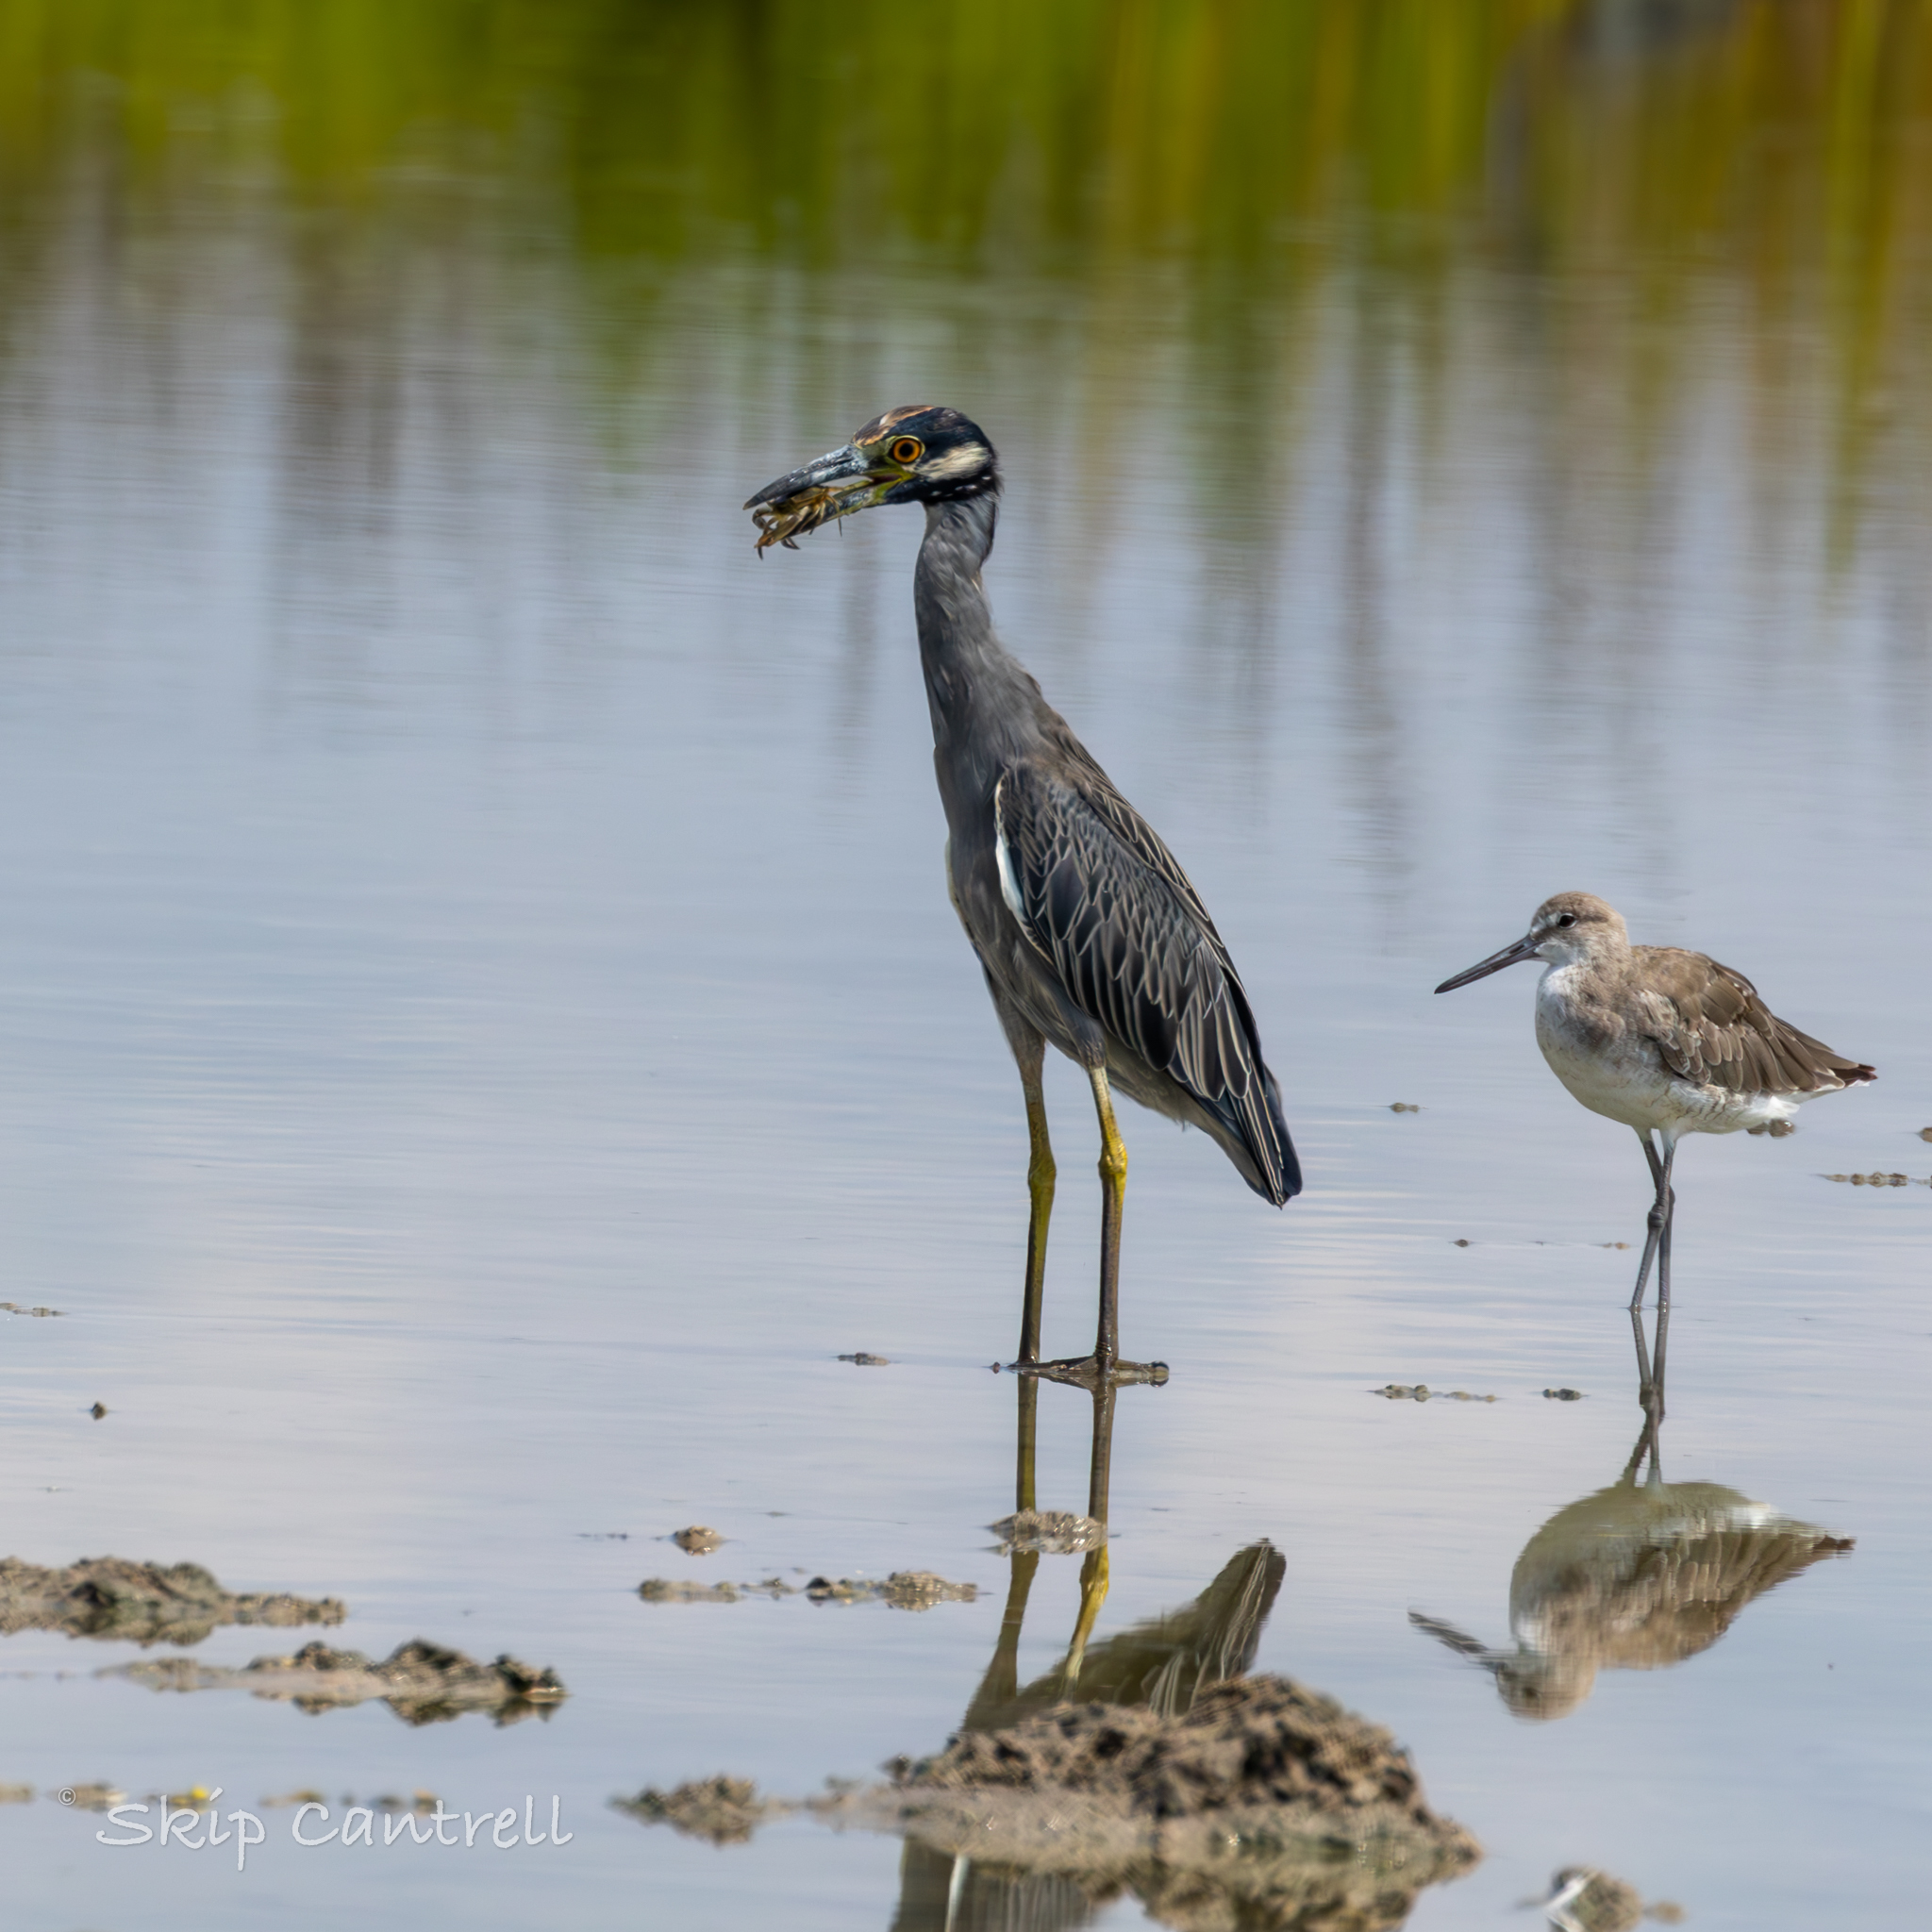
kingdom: Animalia
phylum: Chordata
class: Aves
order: Pelecaniformes
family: Ardeidae
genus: Nyctanassa
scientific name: Nyctanassa violacea
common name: Yellow-crowned night heron
